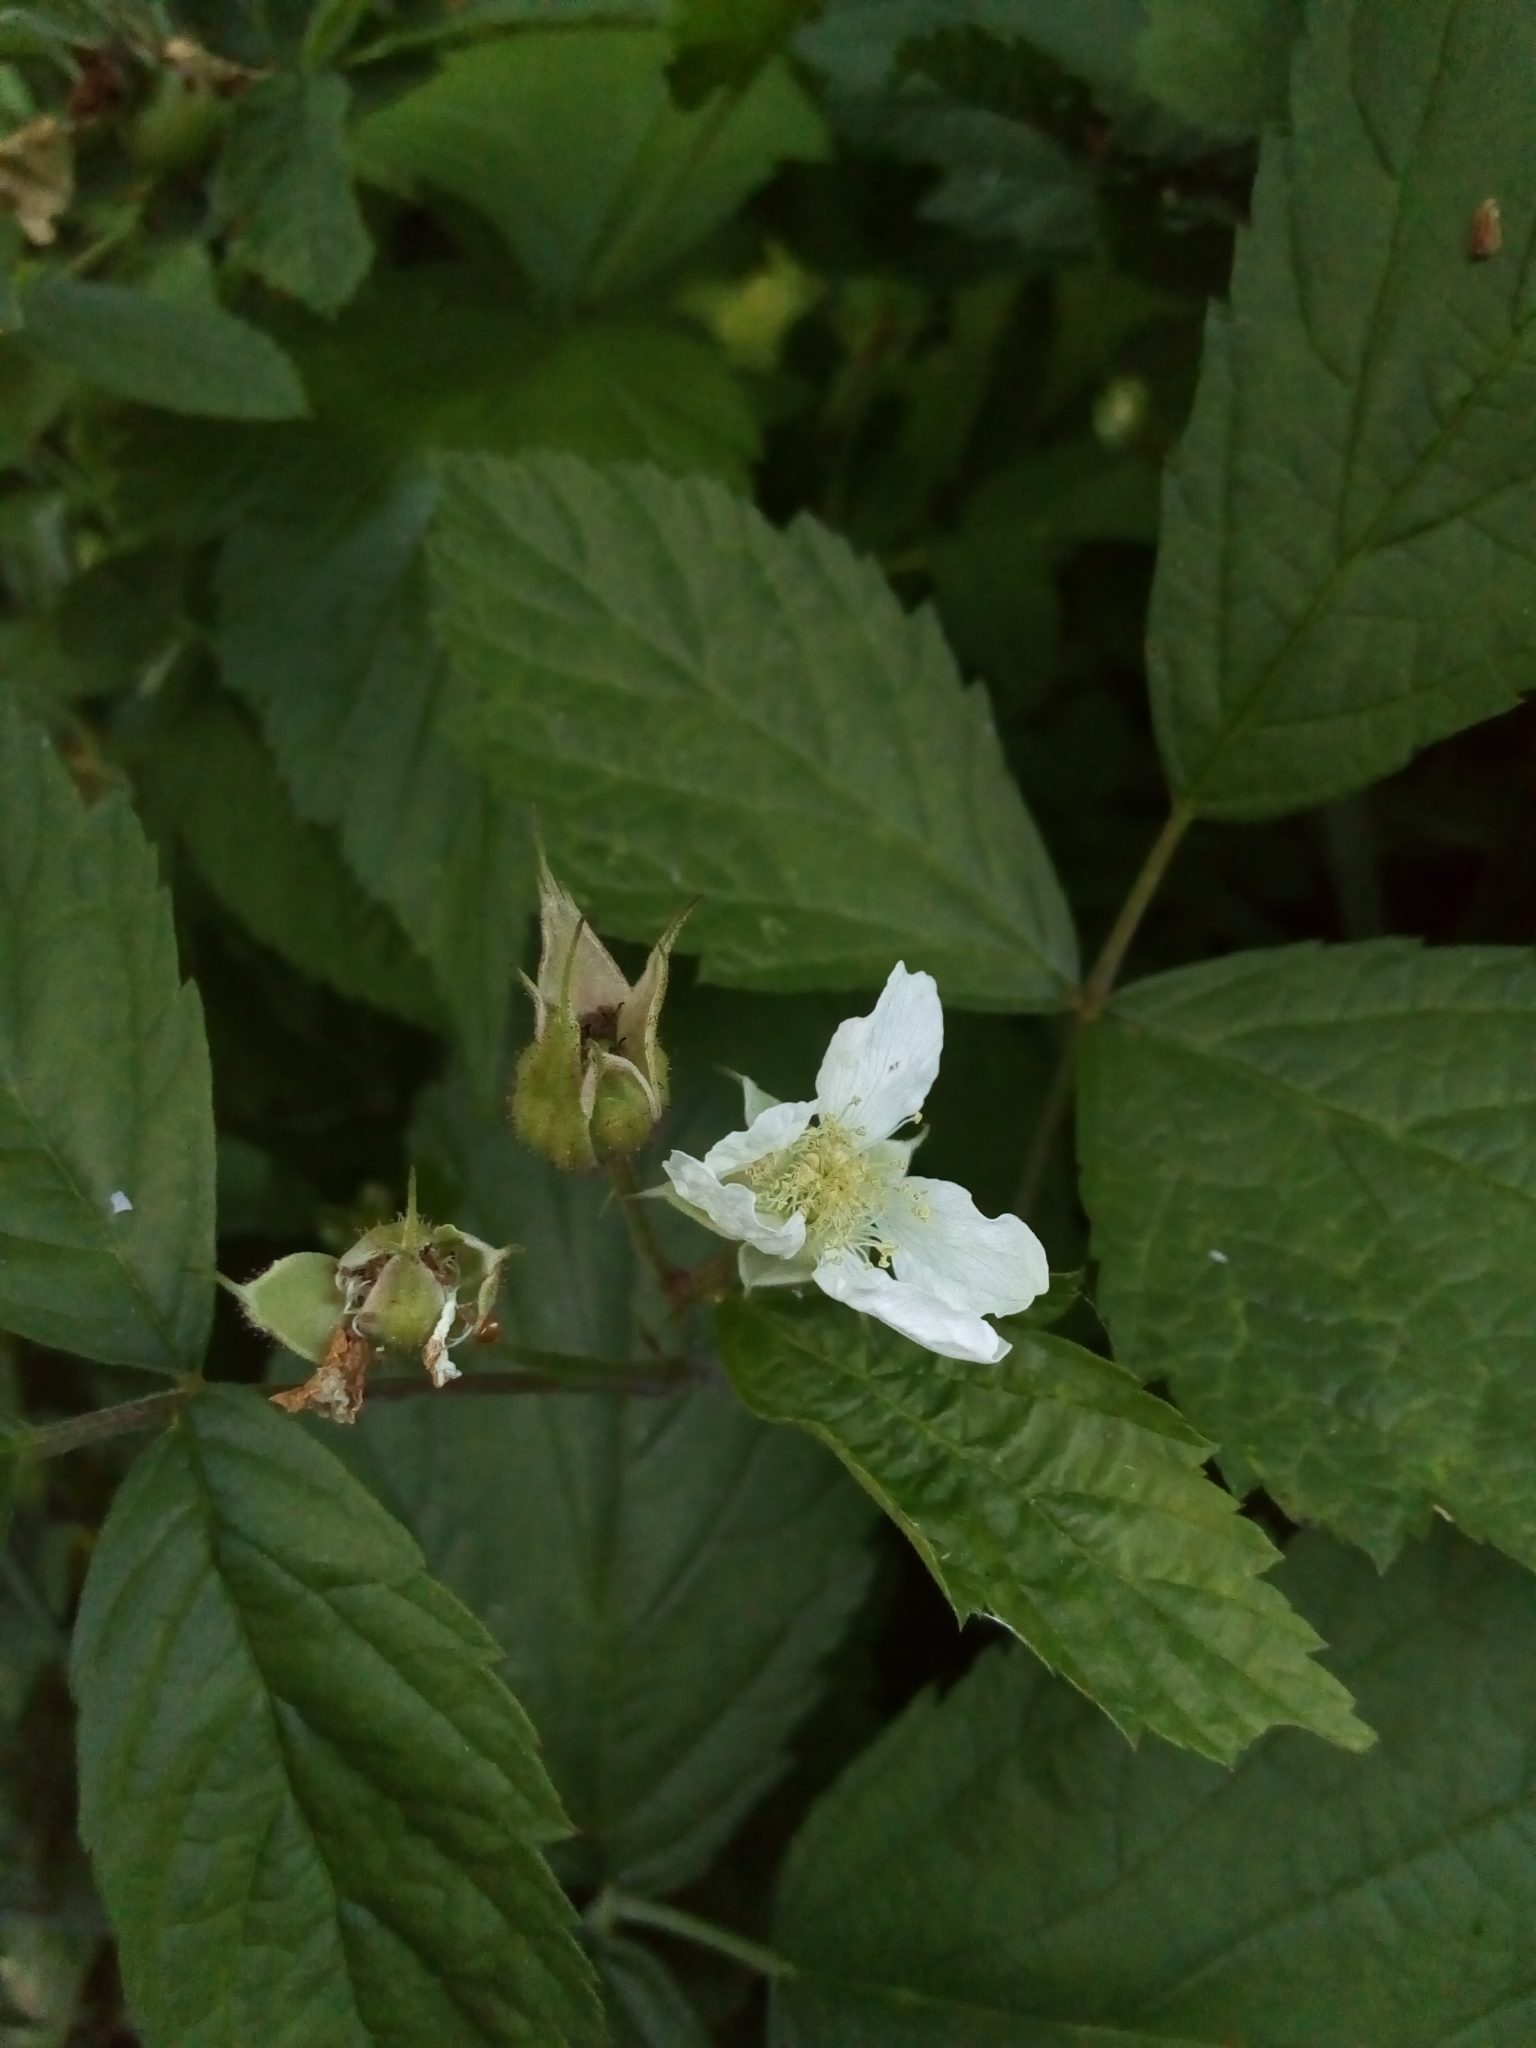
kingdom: Plantae
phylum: Tracheophyta
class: Magnoliopsida
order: Rosales
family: Rosaceae
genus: Rubus
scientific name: Rubus caesius
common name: Dewberry
